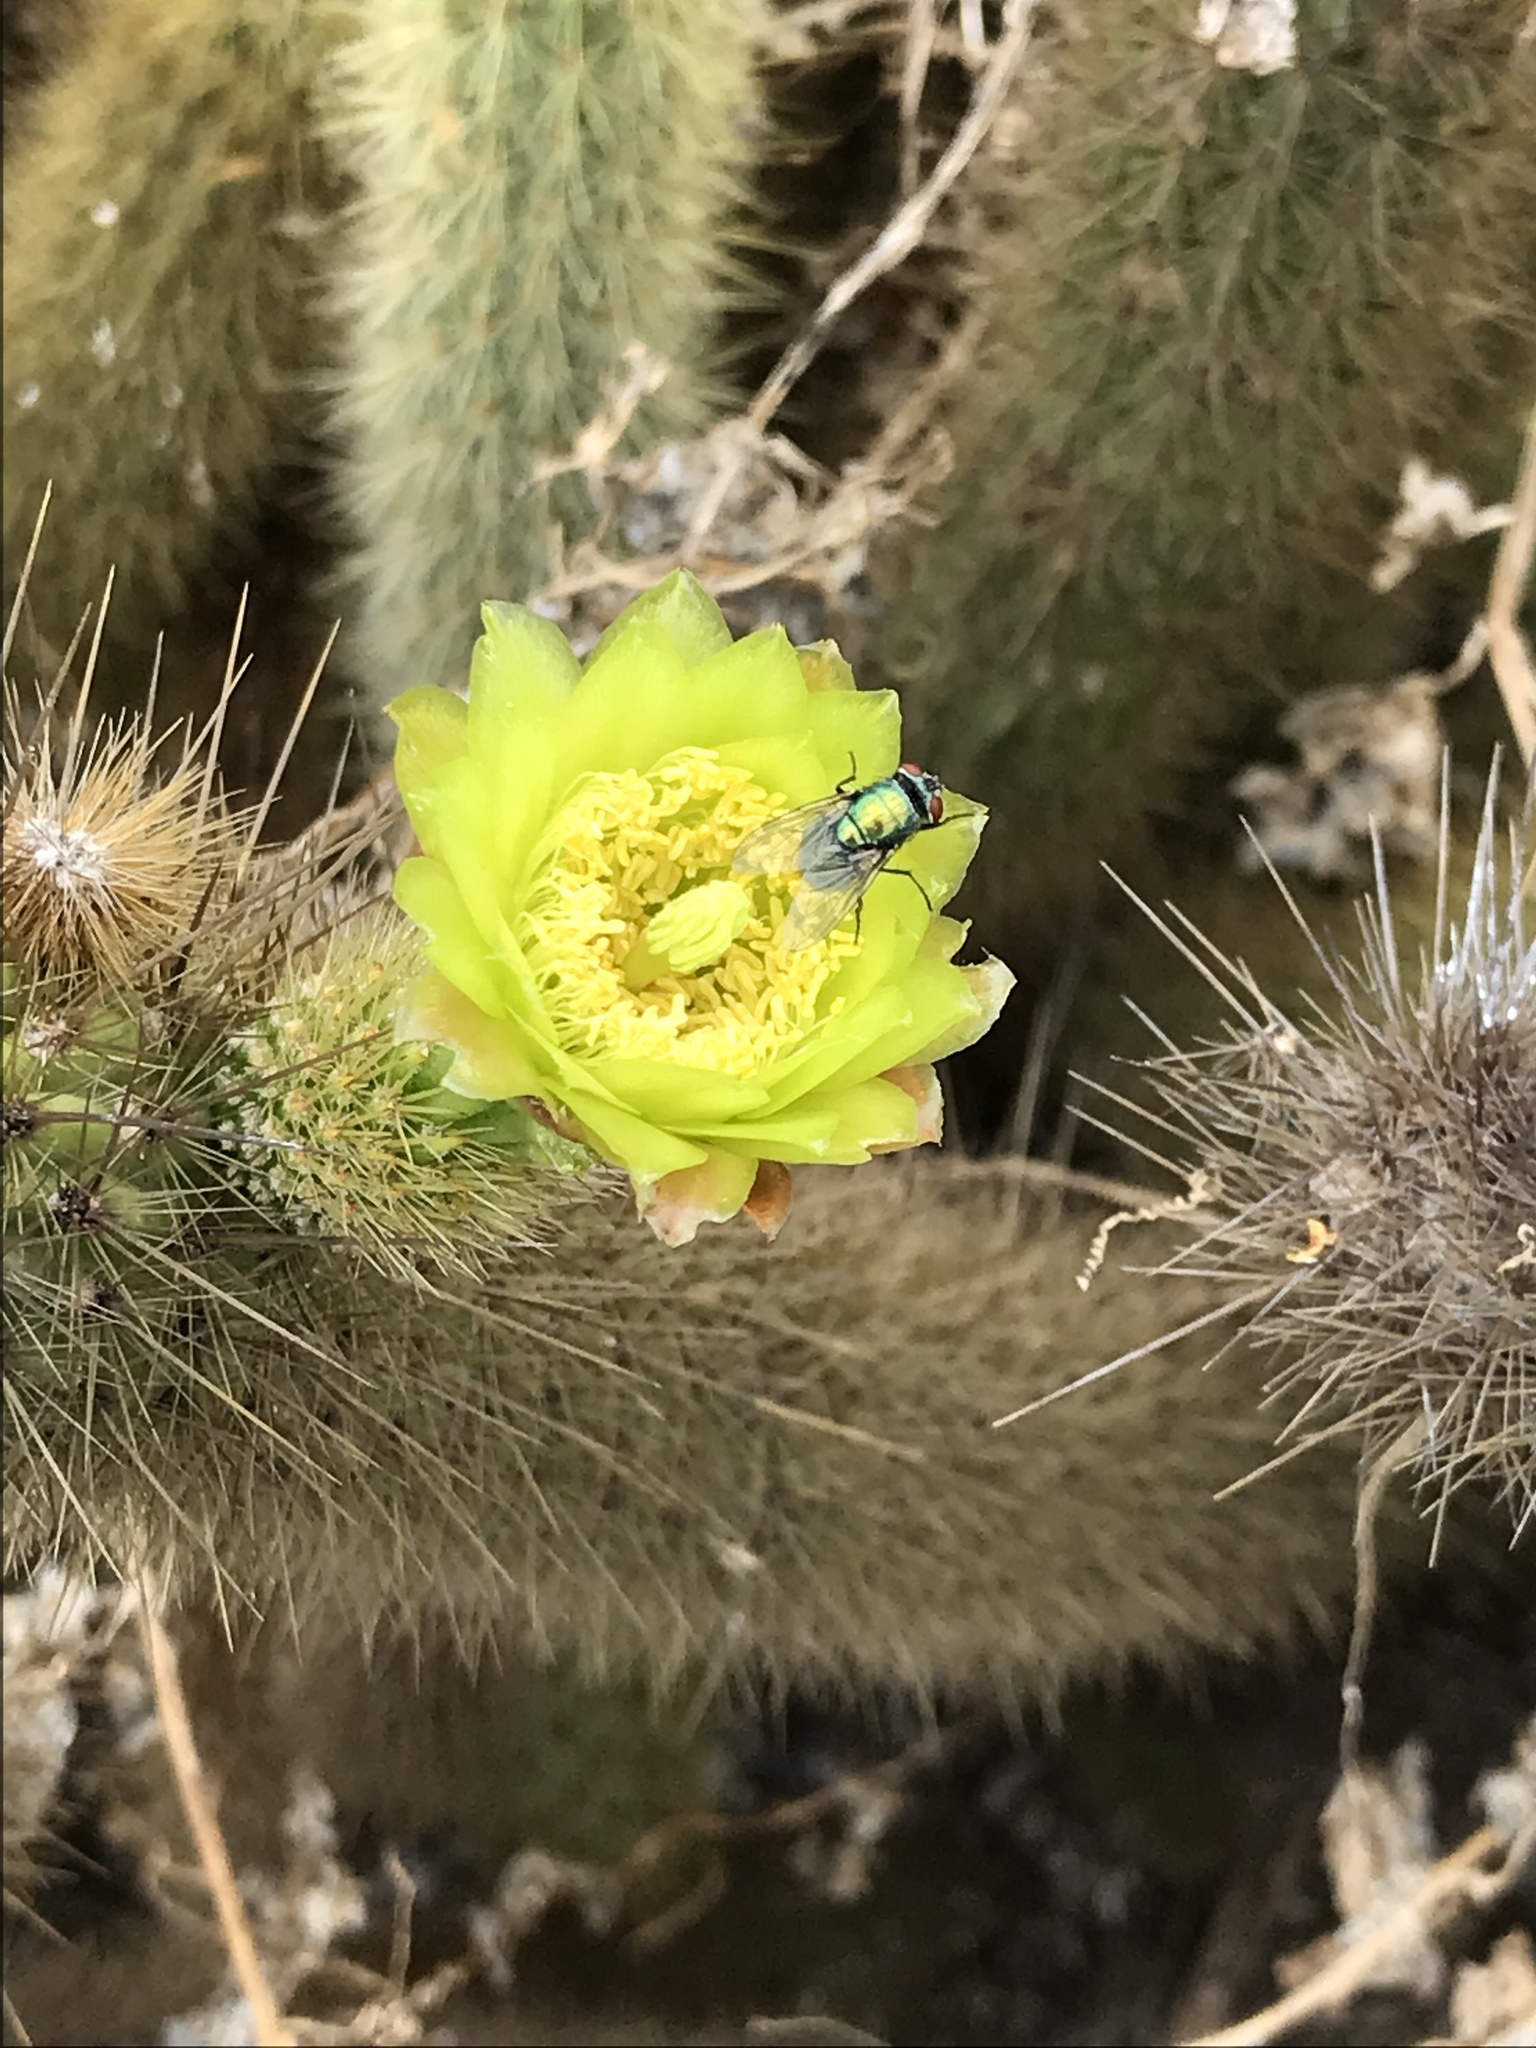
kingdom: Plantae
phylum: Tracheophyta
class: Magnoliopsida
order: Caryophyllales
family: Cactaceae
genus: Bergerocactus
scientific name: Bergerocactus emoryi
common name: Golden snakecactus
